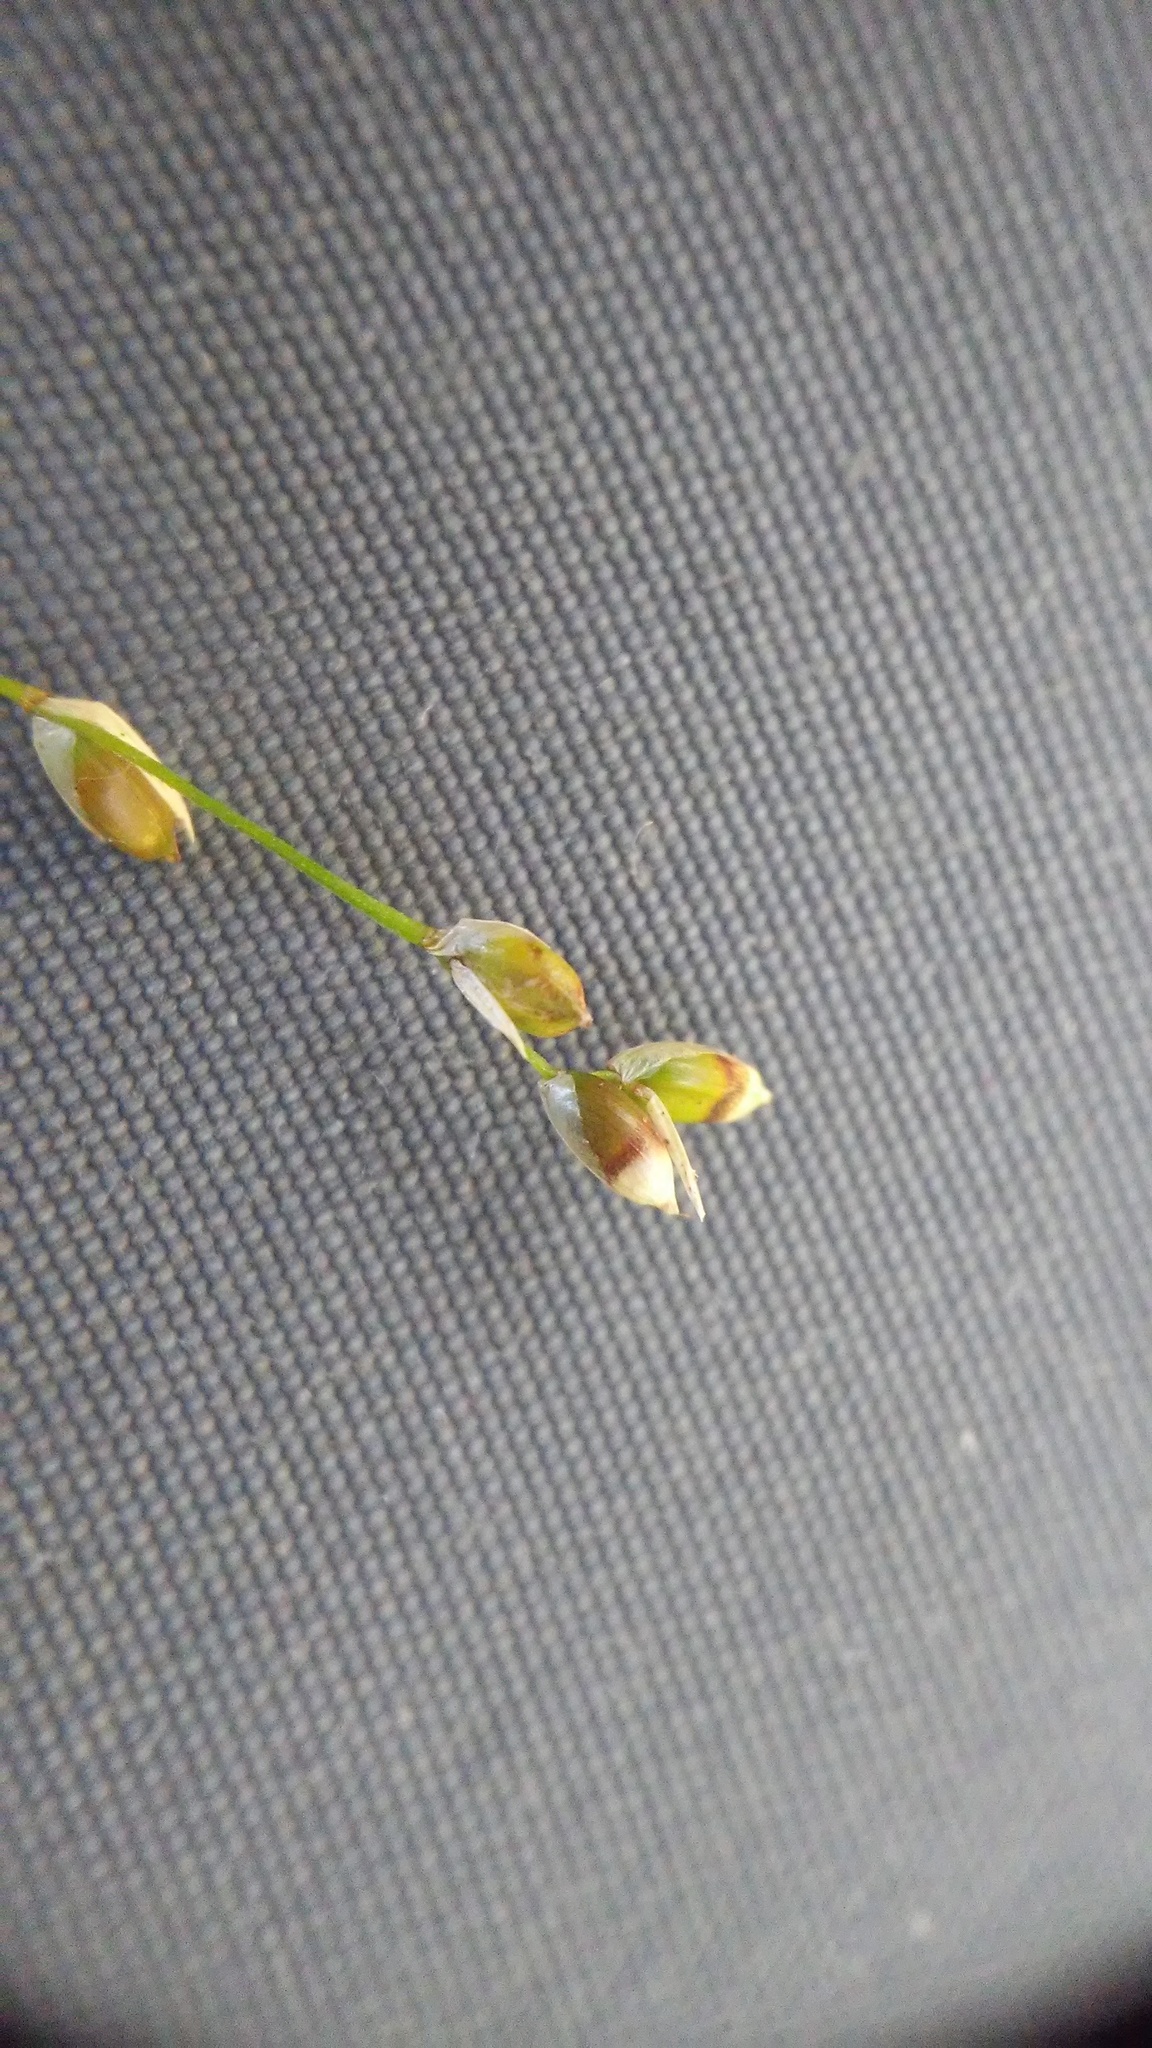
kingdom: Plantae
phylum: Tracheophyta
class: Liliopsida
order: Poales
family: Cyperaceae
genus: Carex
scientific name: Carex disperma
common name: Short-leaved sedge
